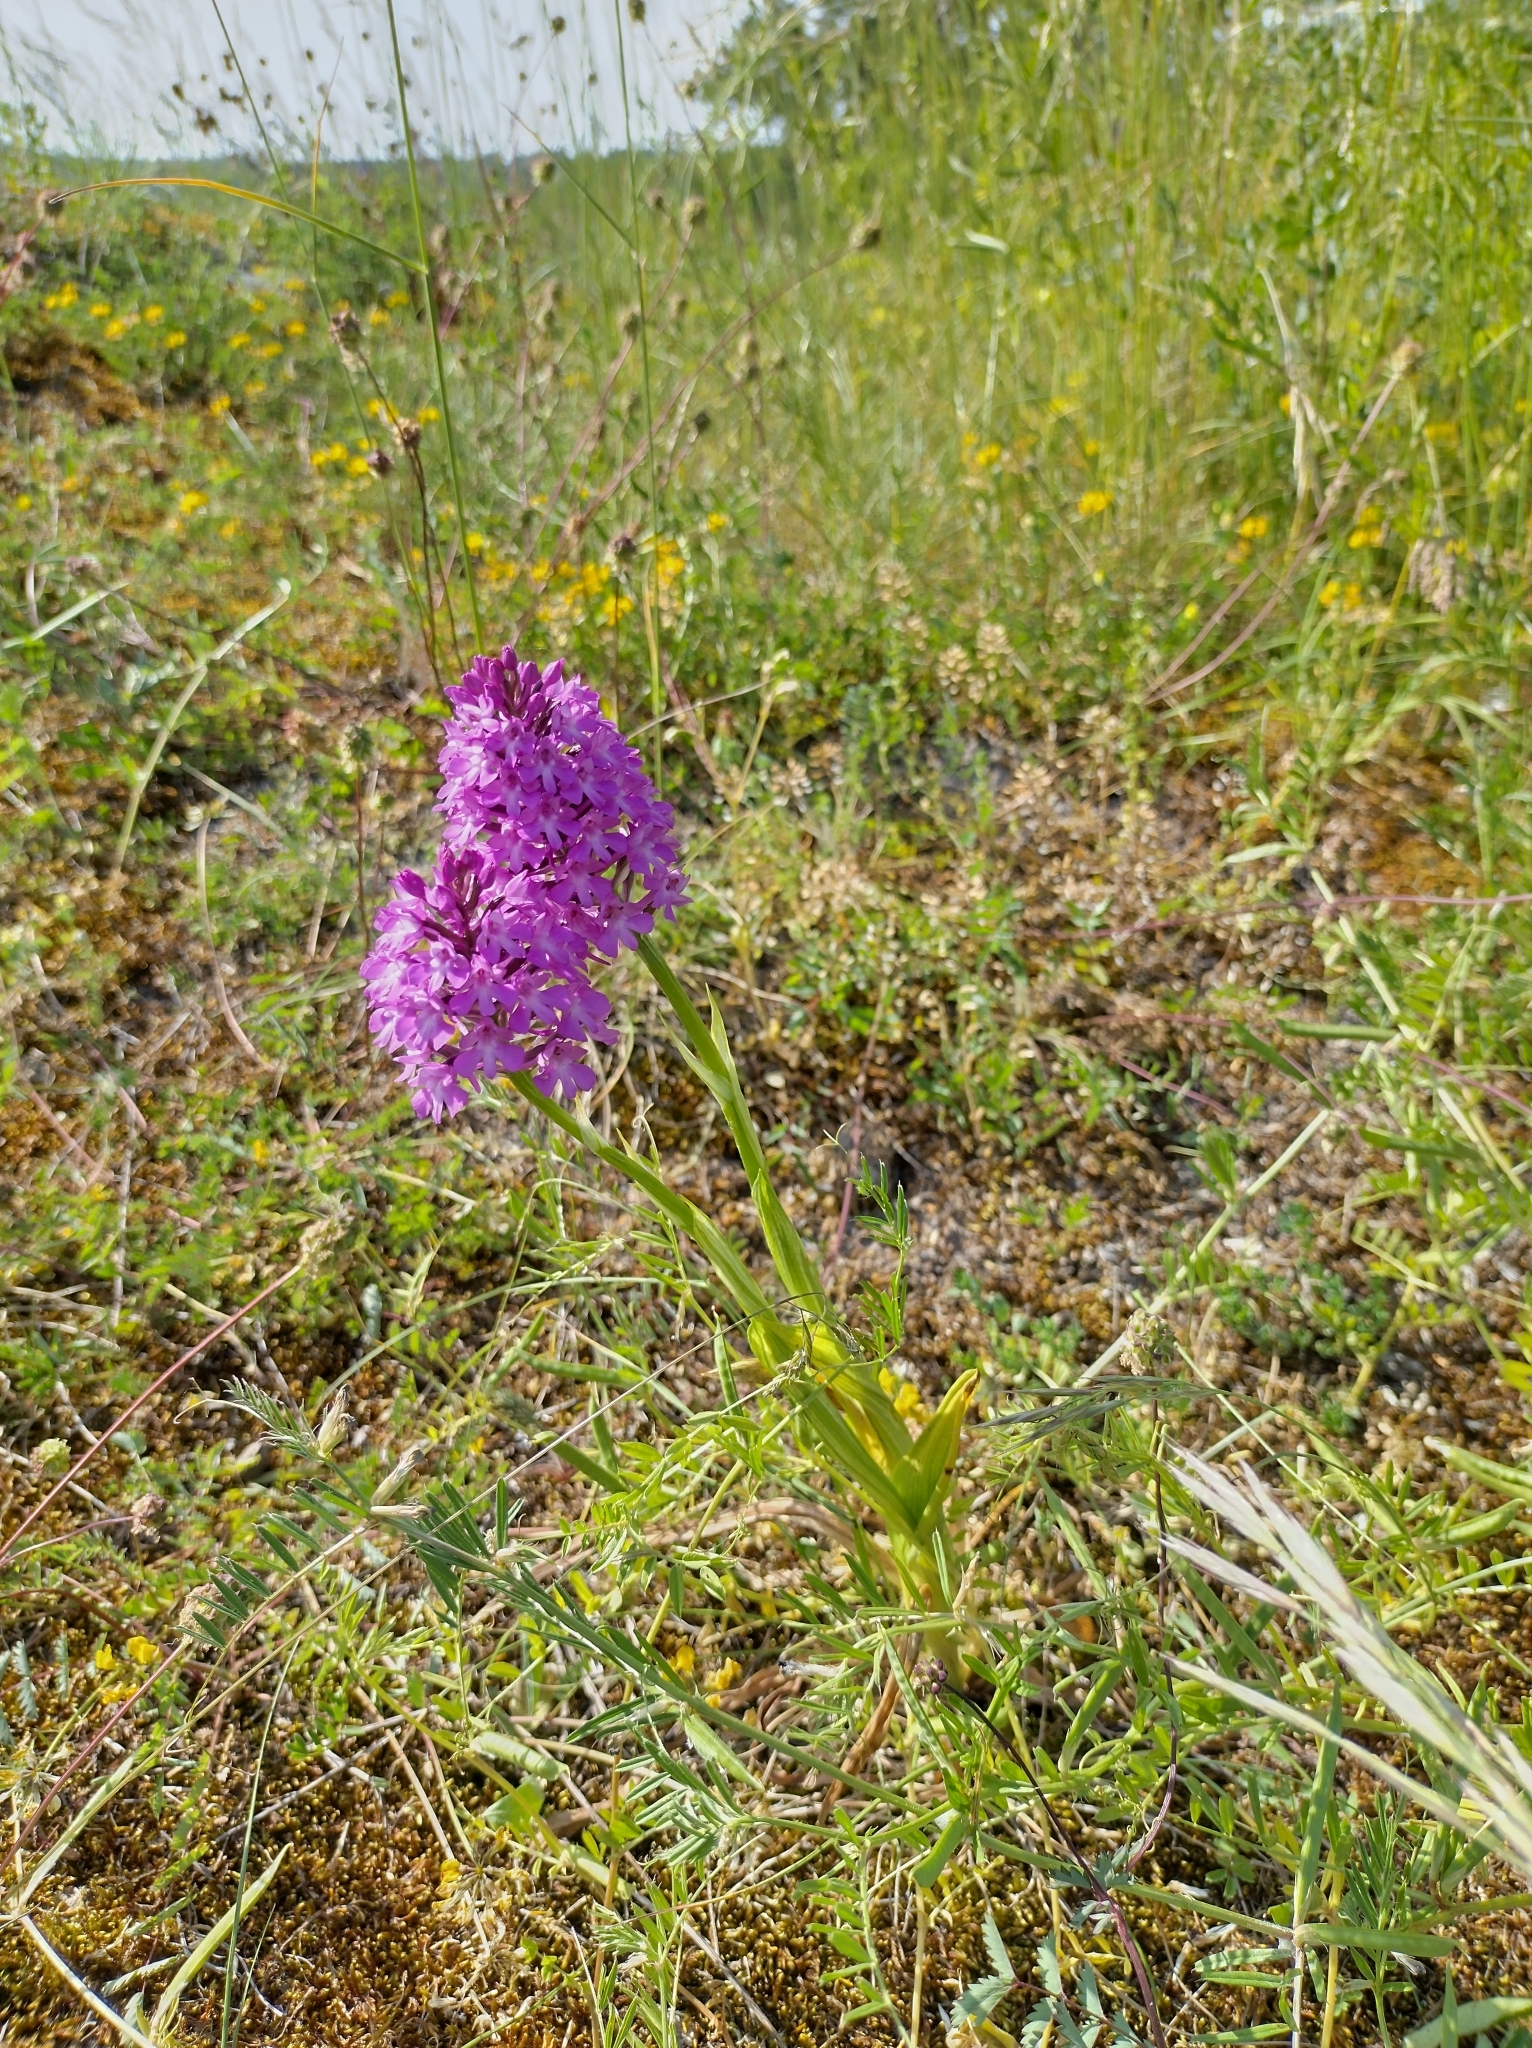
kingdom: Plantae
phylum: Tracheophyta
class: Liliopsida
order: Asparagales
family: Orchidaceae
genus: Anacamptis
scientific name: Anacamptis pyramidalis
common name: Pyramidal orchid
